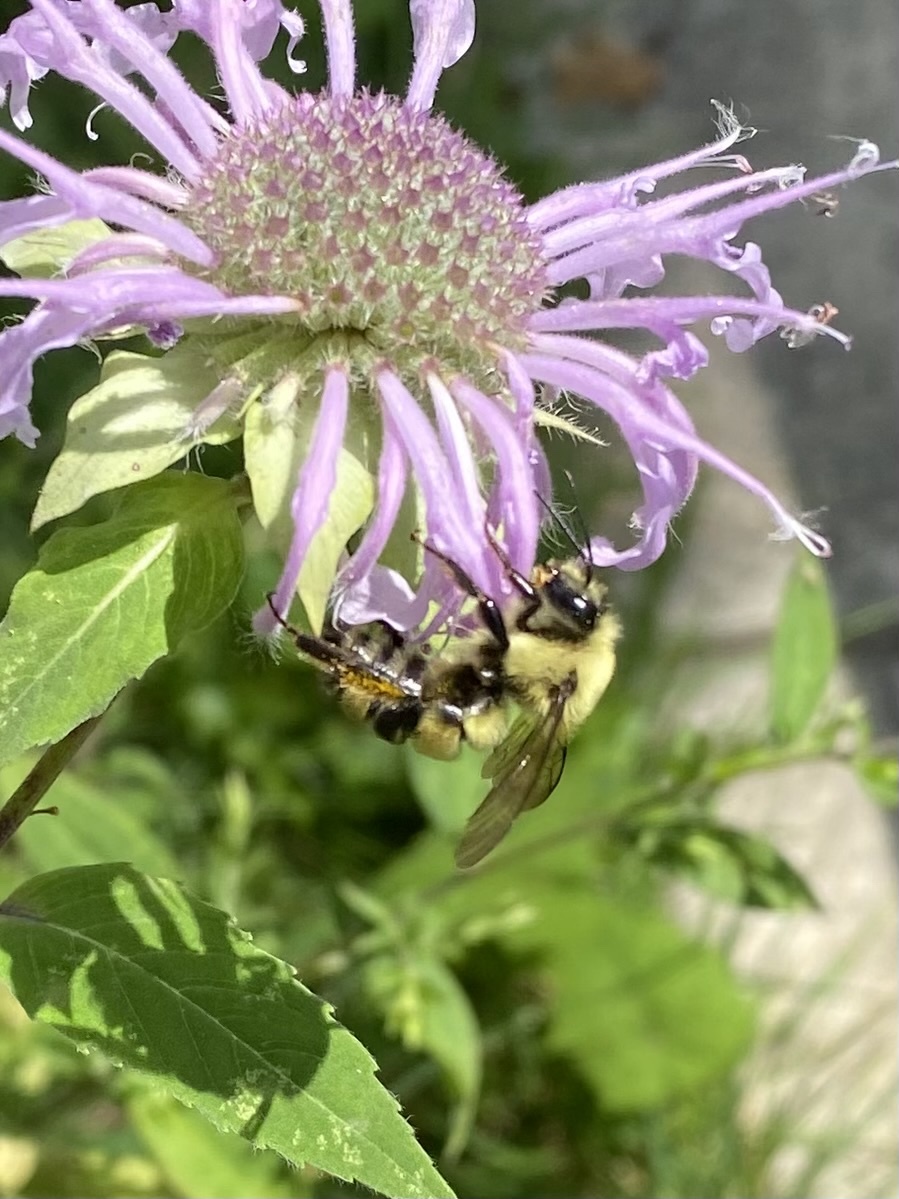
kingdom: Animalia
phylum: Arthropoda
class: Insecta
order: Hymenoptera
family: Apidae
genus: Bombus
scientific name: Bombus bimaculatus
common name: Two-spotted bumble bee
